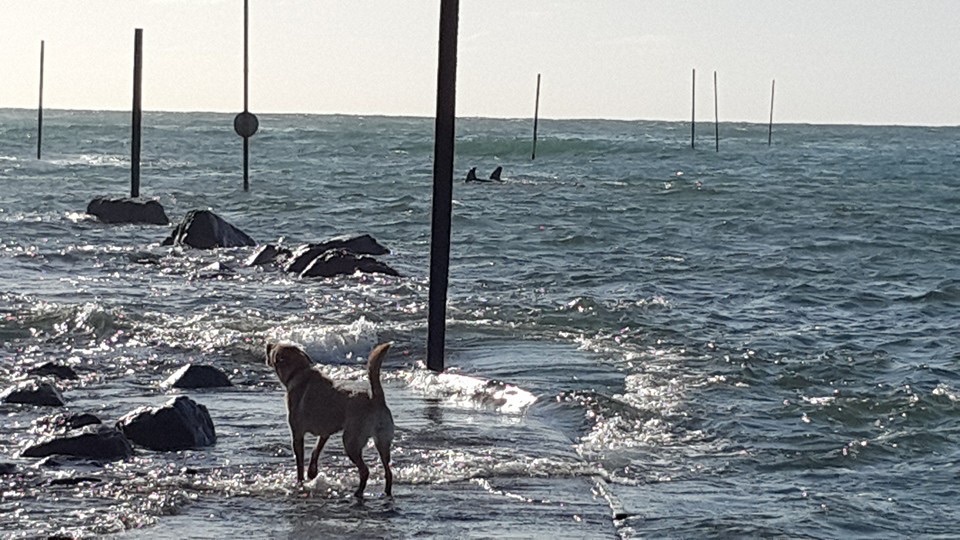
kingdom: Animalia
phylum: Chordata
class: Mammalia
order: Cetacea
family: Delphinidae
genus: Orcinus
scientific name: Orcinus orca
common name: Killer whale
